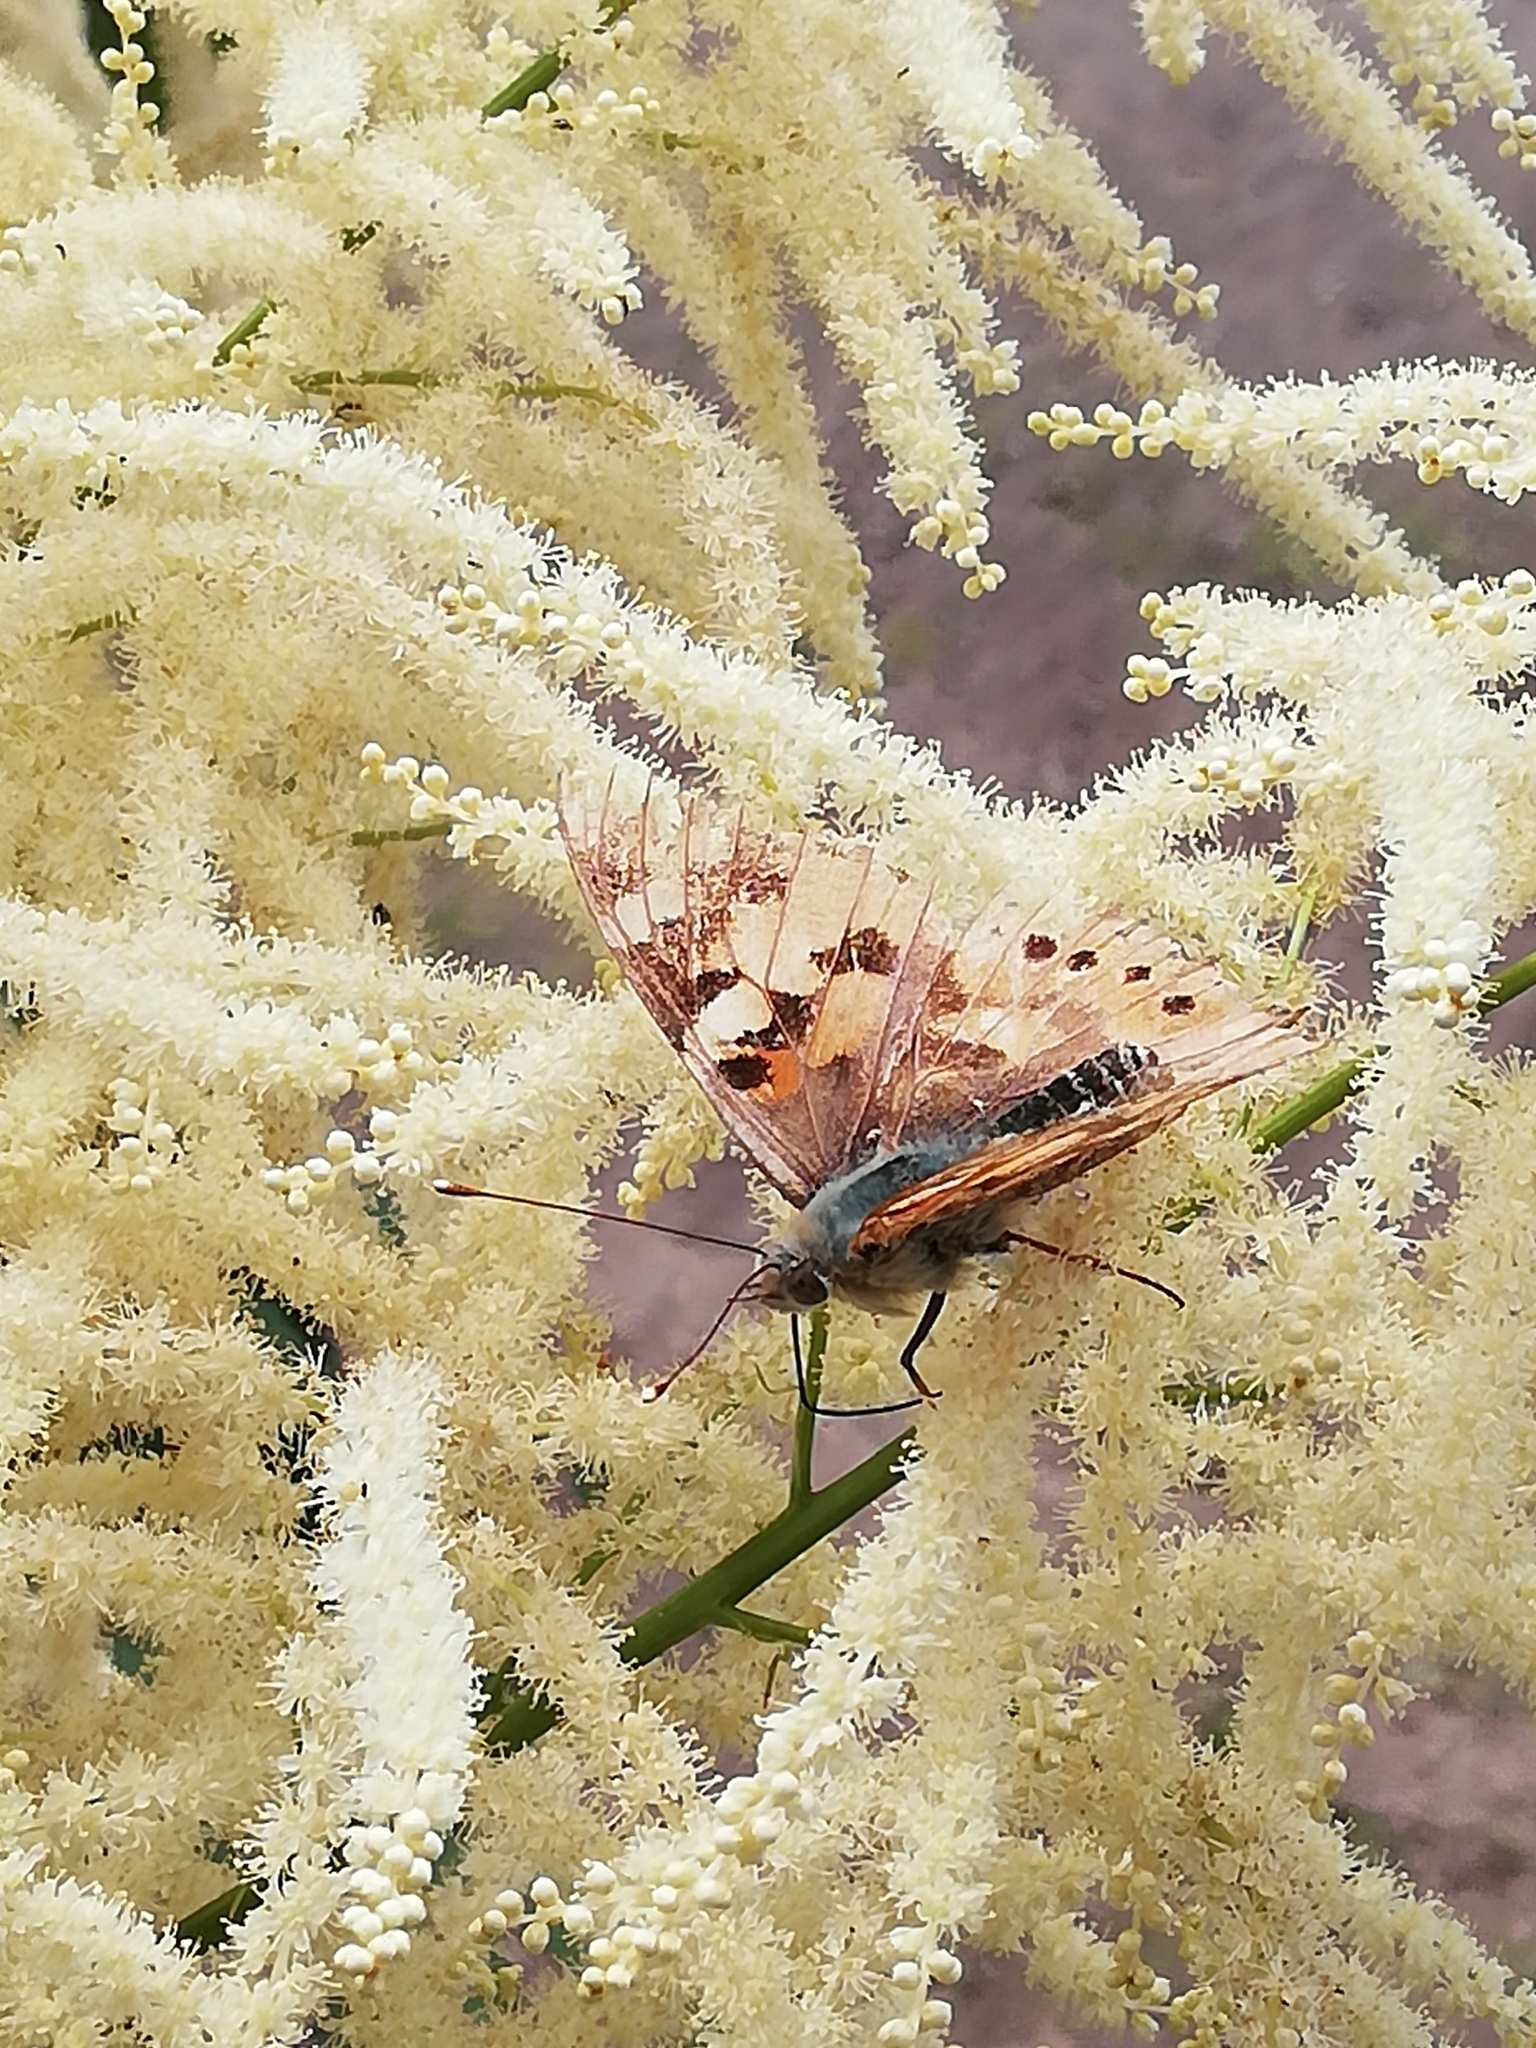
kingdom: Animalia
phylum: Arthropoda
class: Insecta
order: Lepidoptera
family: Nymphalidae
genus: Vanessa
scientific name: Vanessa cardui
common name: Painted lady
